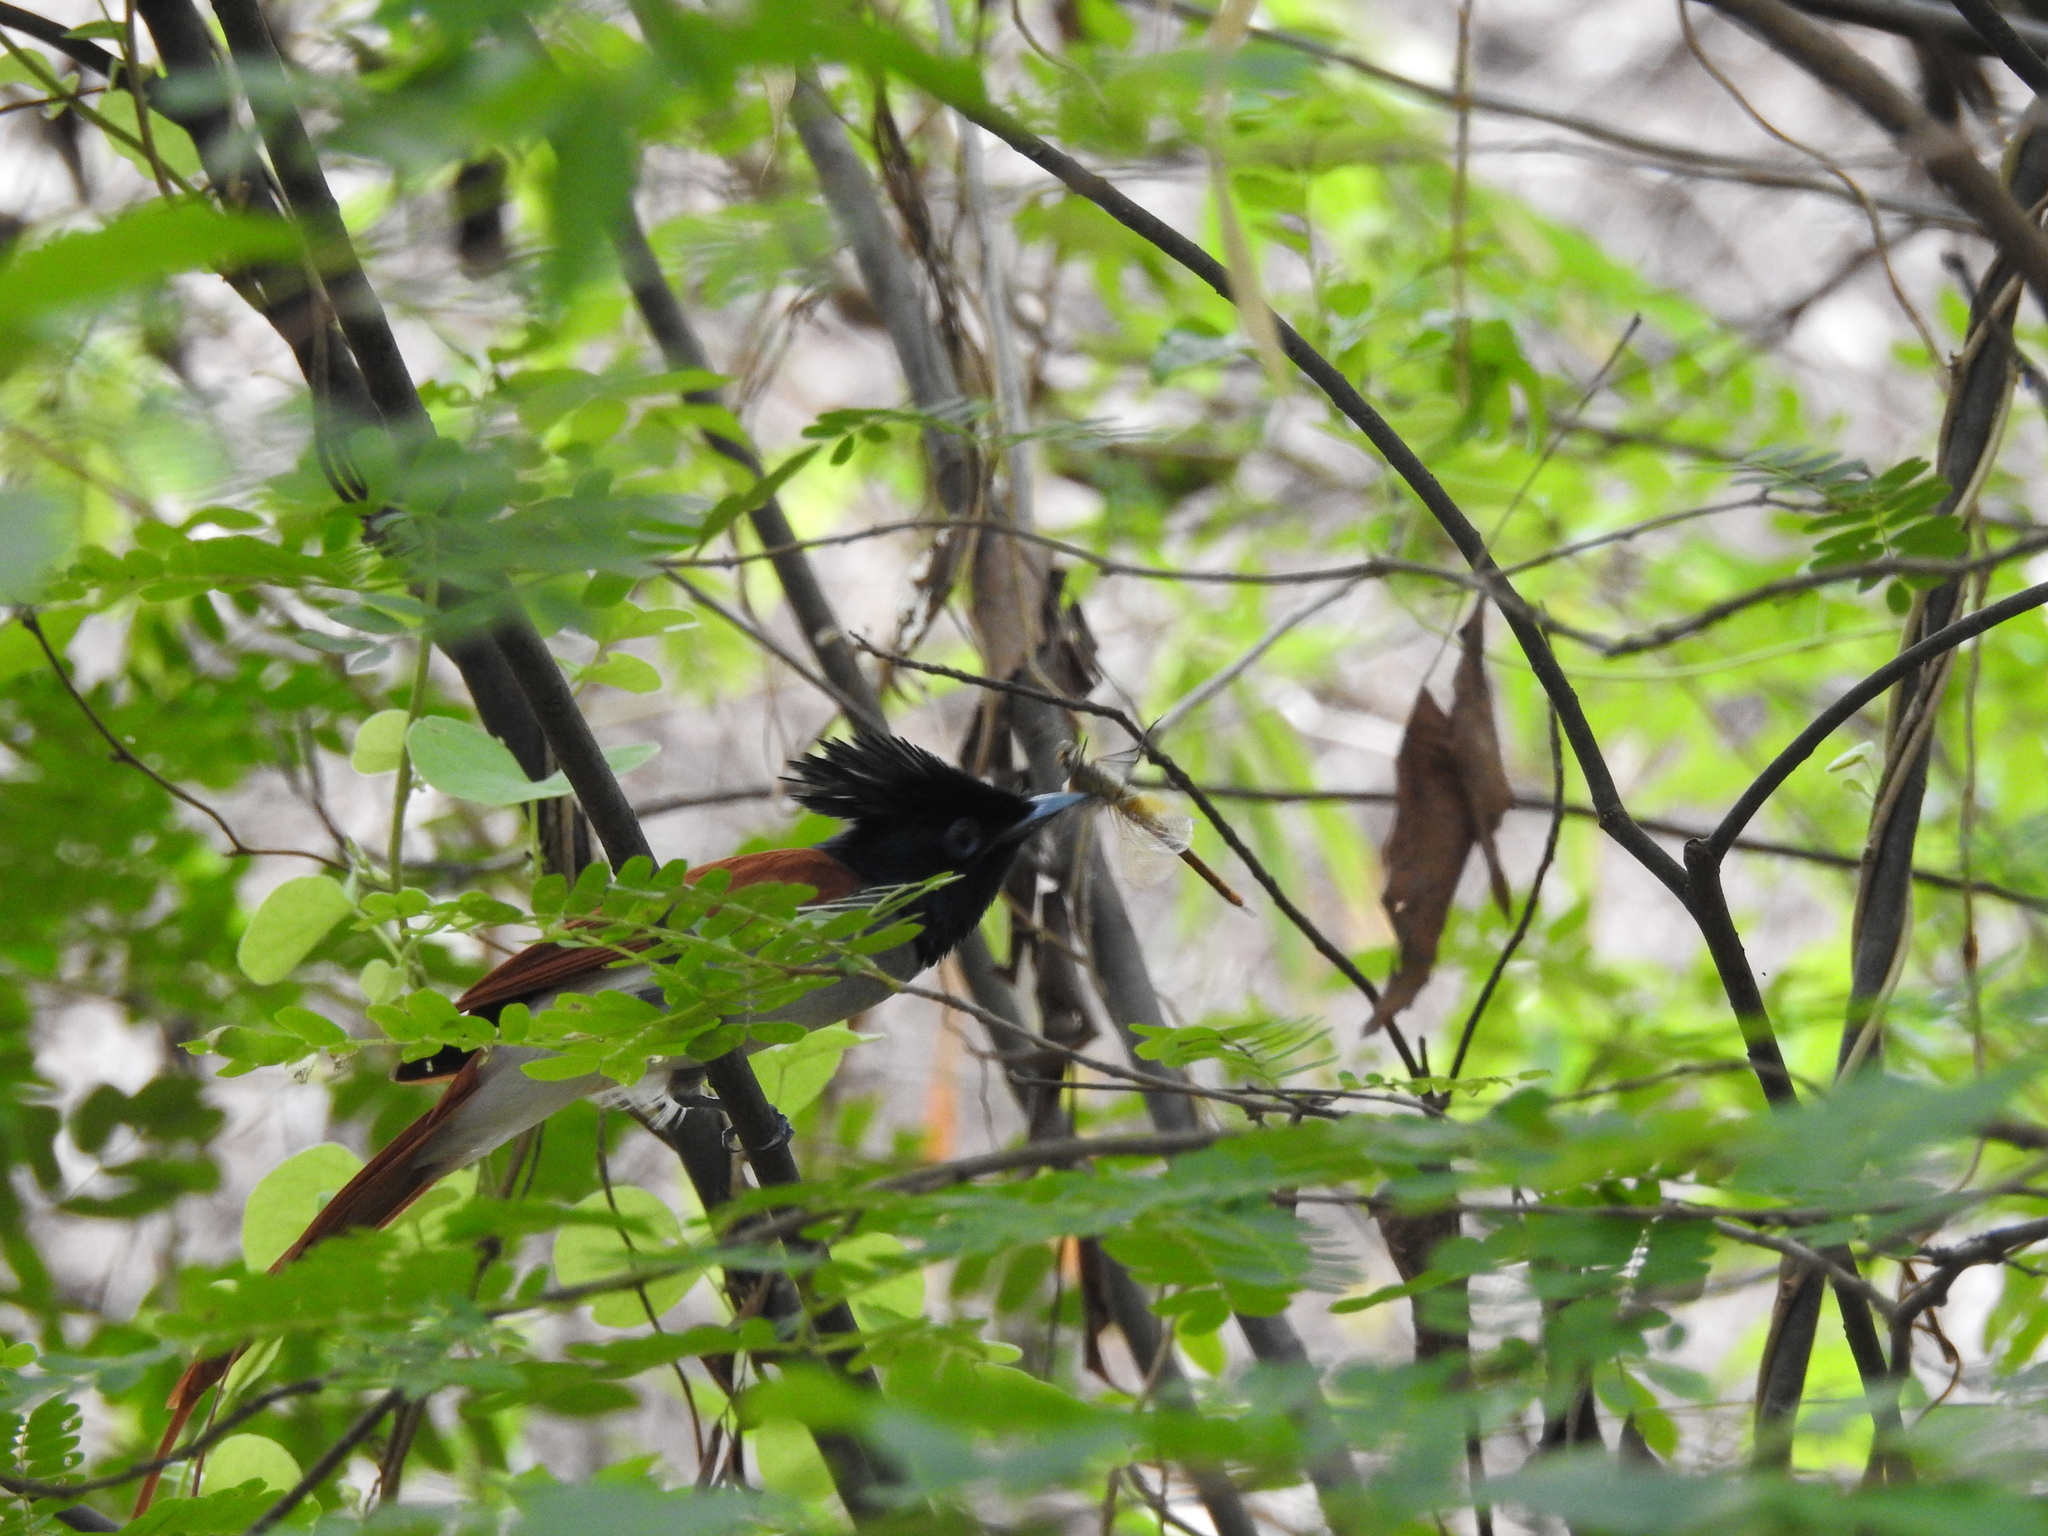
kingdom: Animalia
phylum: Arthropoda
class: Insecta
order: Odonata
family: Libellulidae
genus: Pantala
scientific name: Pantala flavescens
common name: Wandering glider
